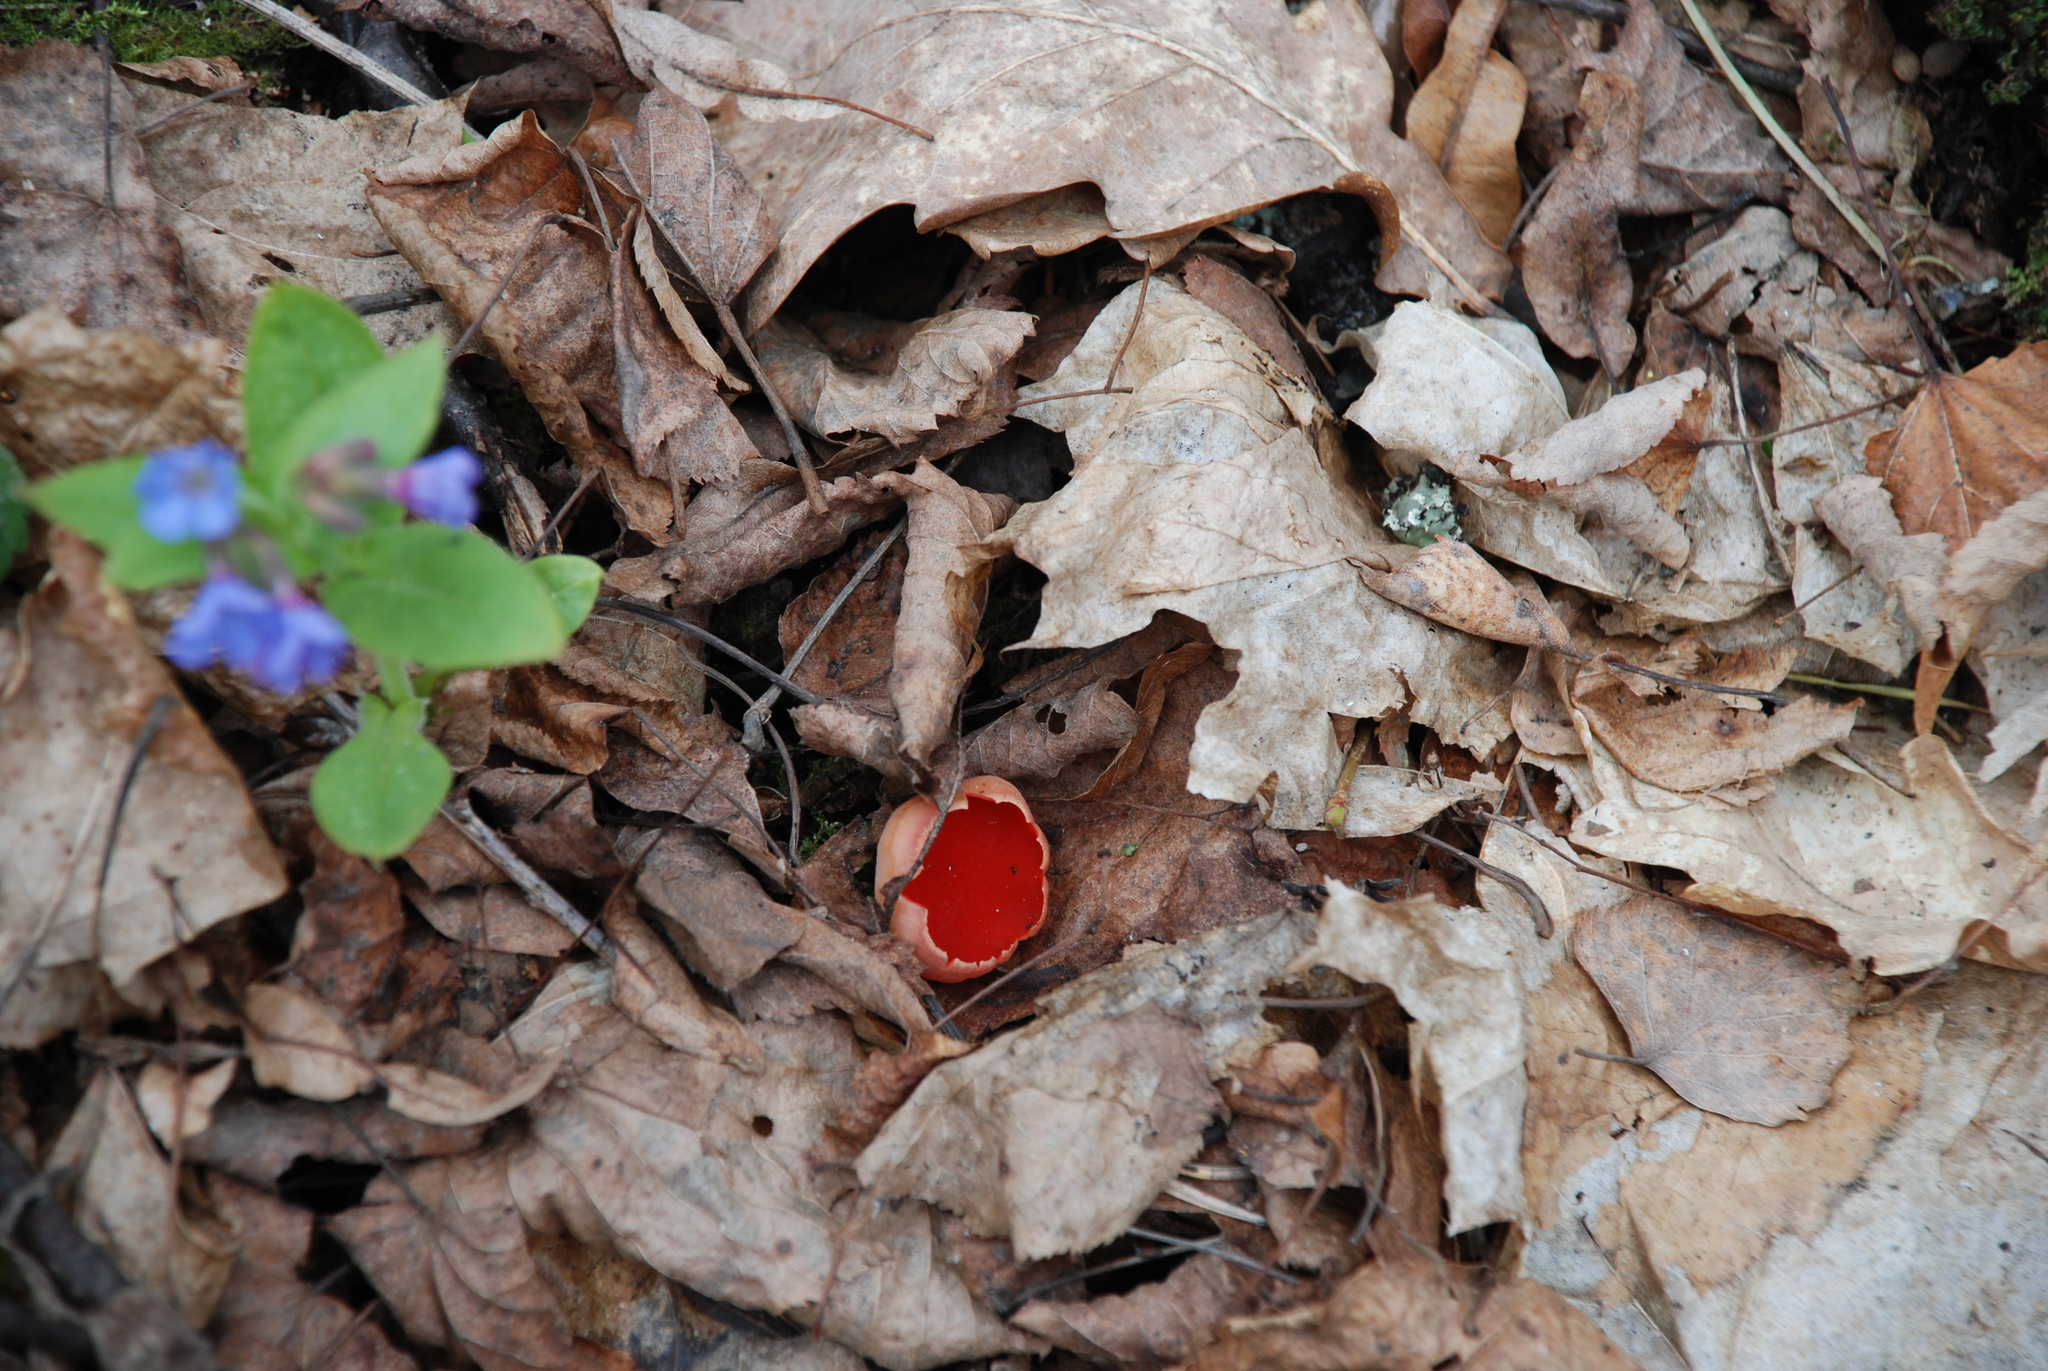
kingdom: Fungi
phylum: Ascomycota
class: Pezizomycetes
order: Pezizales
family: Sarcoscyphaceae
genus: Sarcoscypha
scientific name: Sarcoscypha
